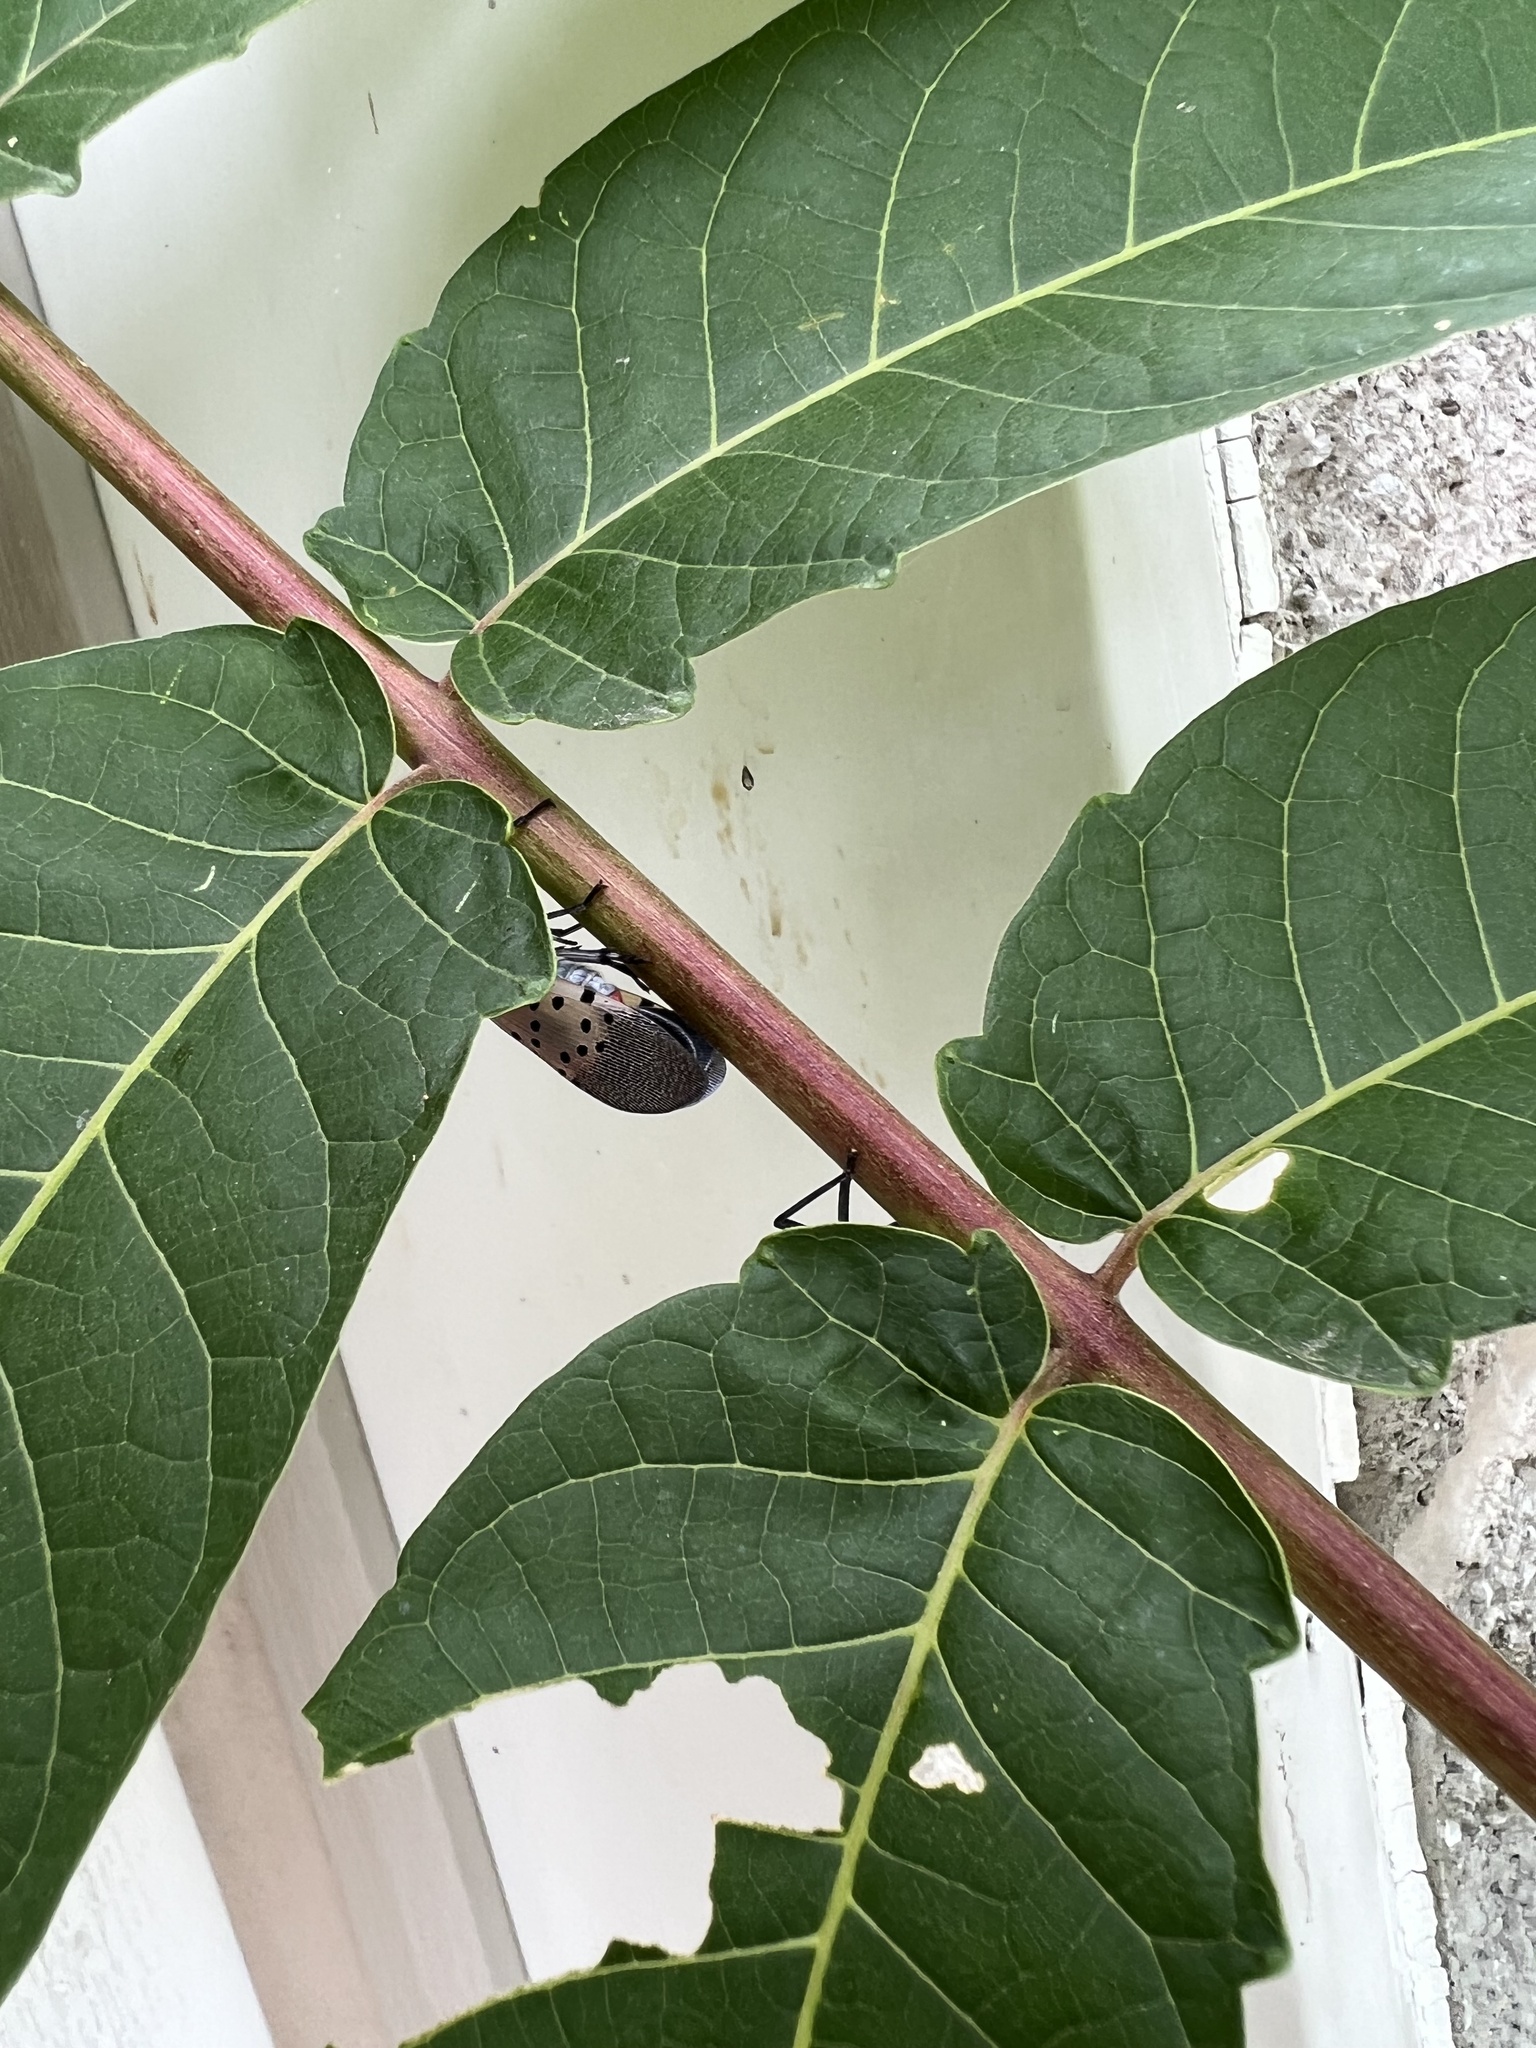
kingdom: Animalia
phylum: Arthropoda
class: Insecta
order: Hemiptera
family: Fulgoridae
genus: Lycorma
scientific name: Lycorma delicatula
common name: Spotted lanternfly
